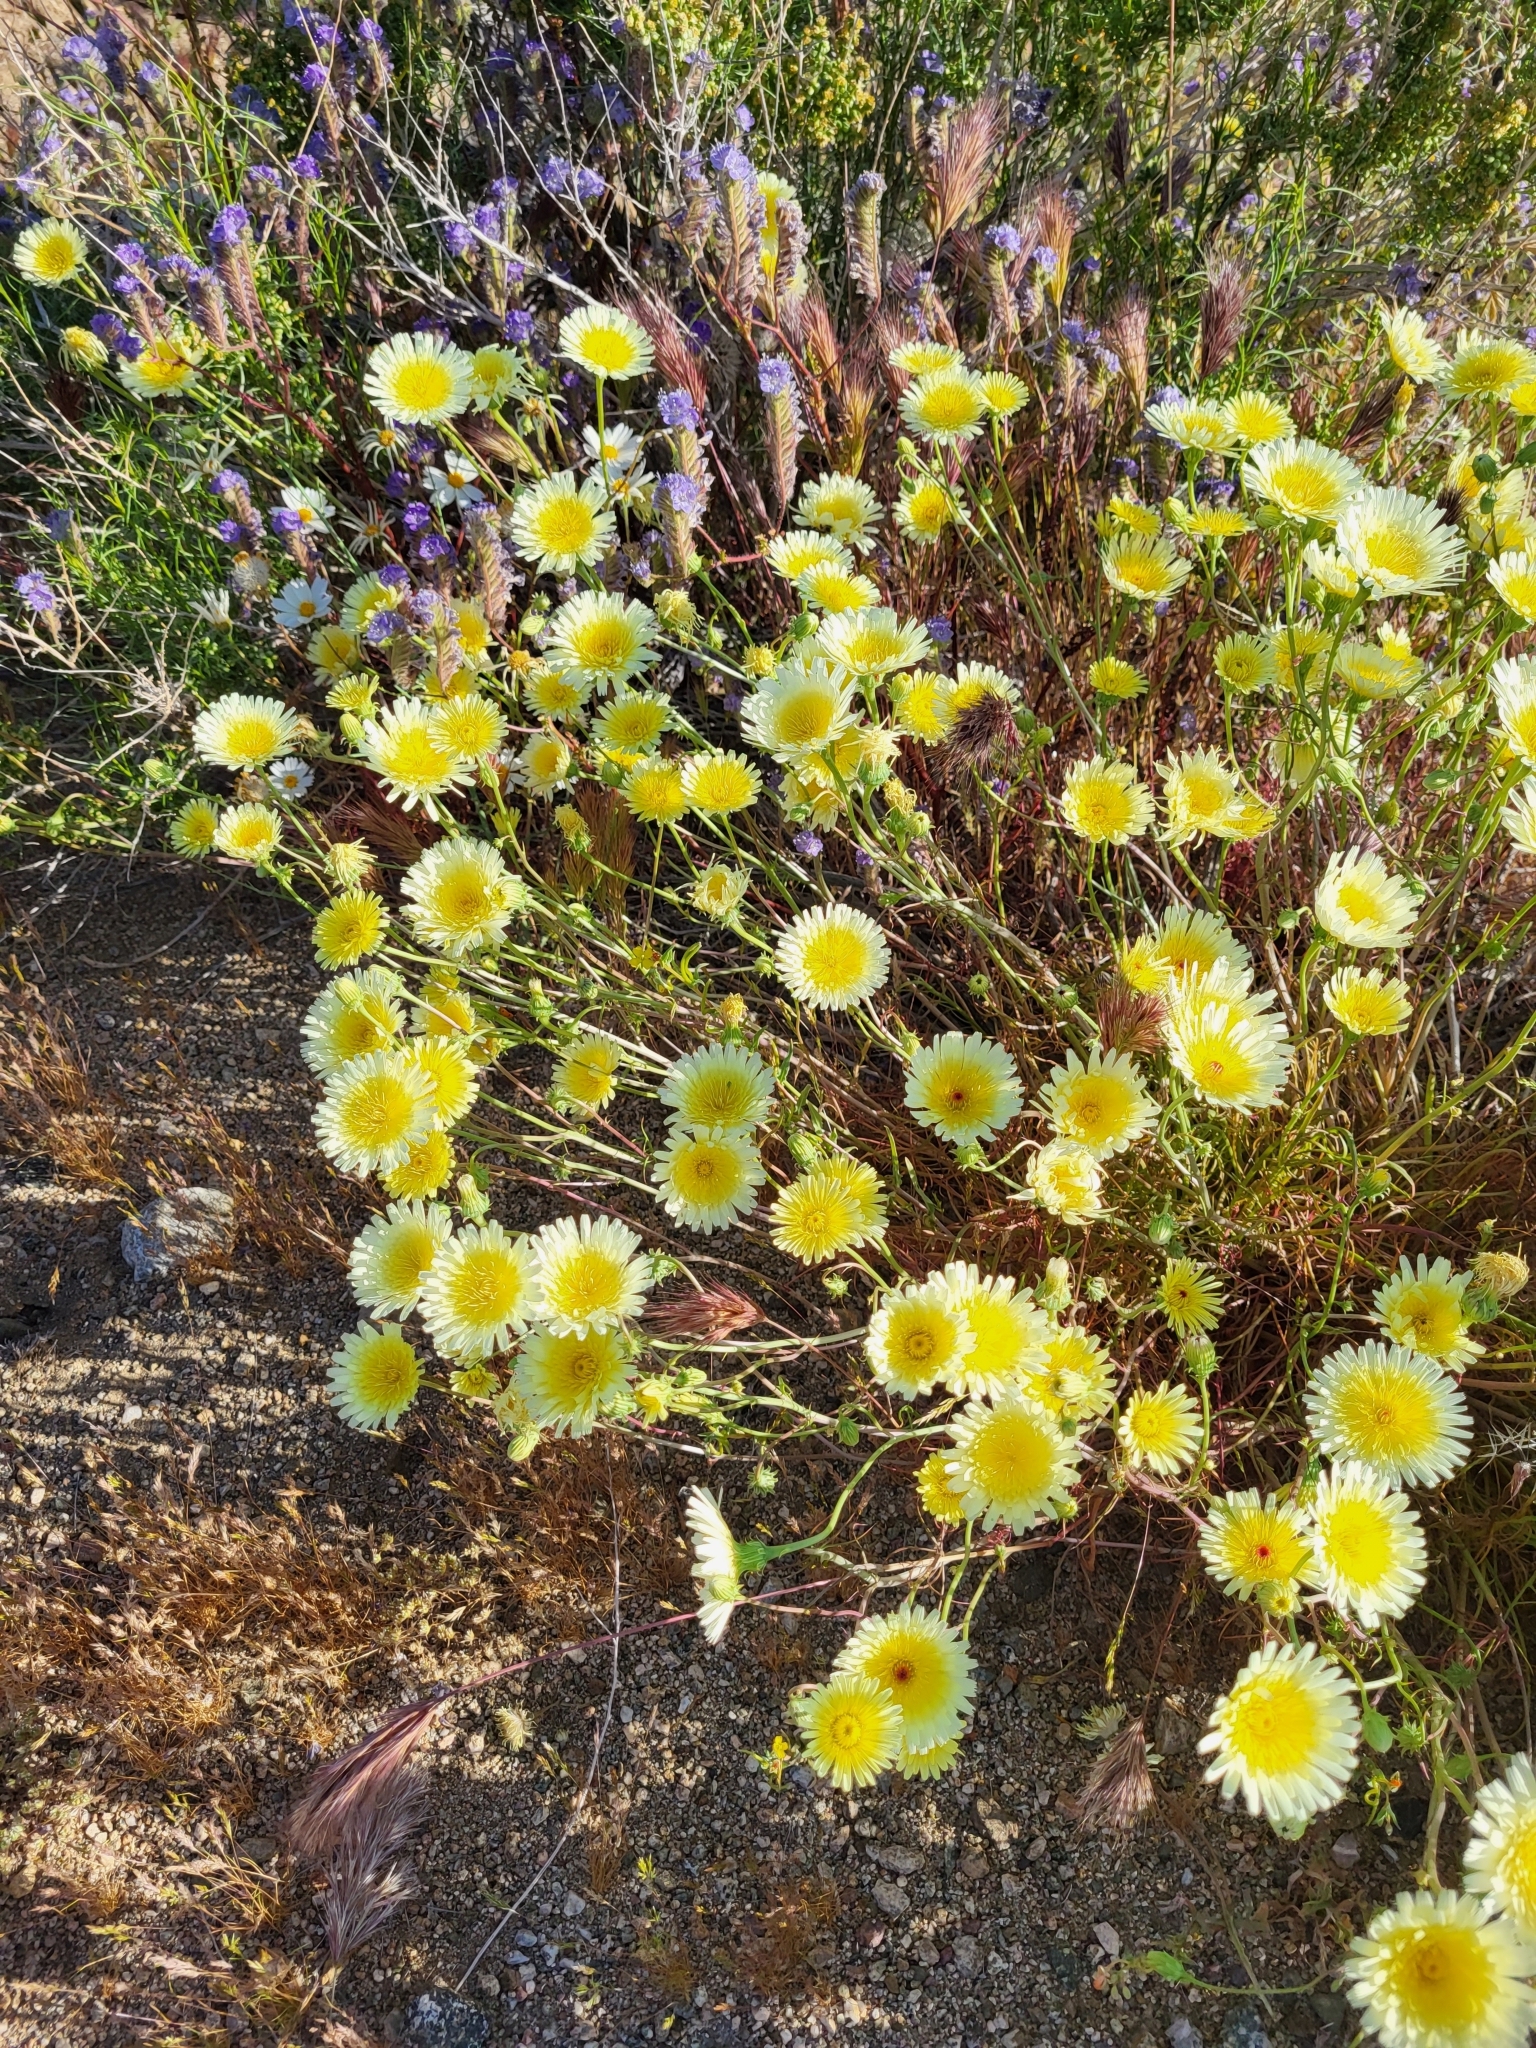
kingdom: Plantae
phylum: Tracheophyta
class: Magnoliopsida
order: Asterales
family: Asteraceae
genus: Malacothrix
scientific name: Malacothrix glabrata
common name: Smooth desert-dandelion
